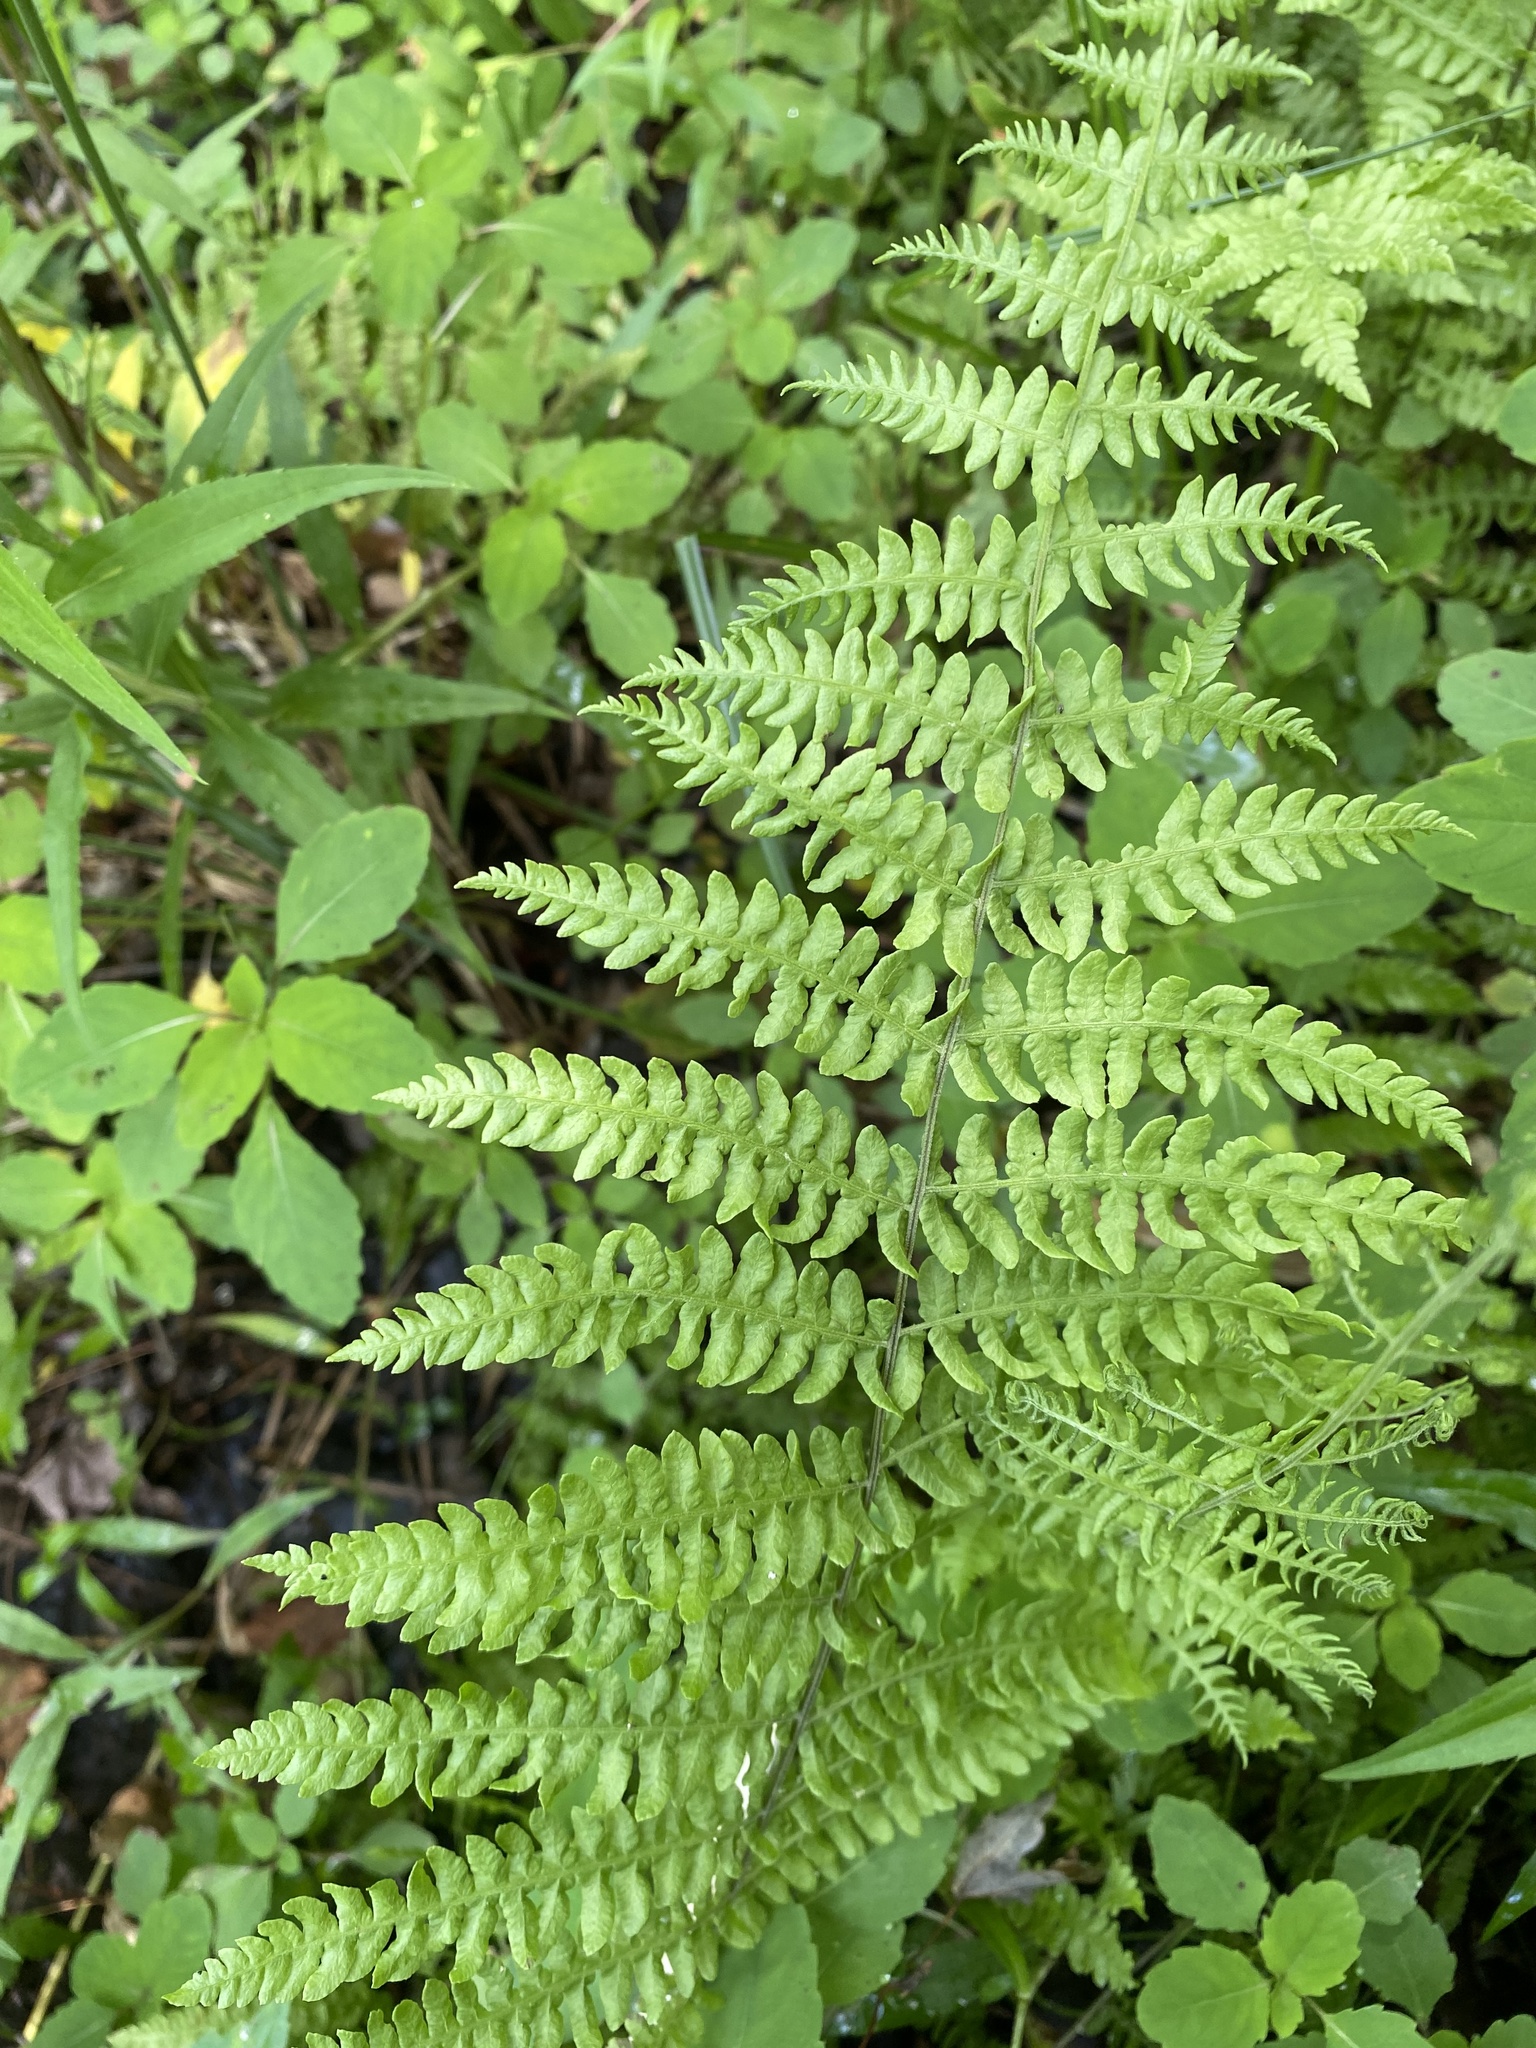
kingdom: Plantae
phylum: Tracheophyta
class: Polypodiopsida
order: Polypodiales
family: Thelypteridaceae
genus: Thelypteris
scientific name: Thelypteris palustris
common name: Marsh fern
